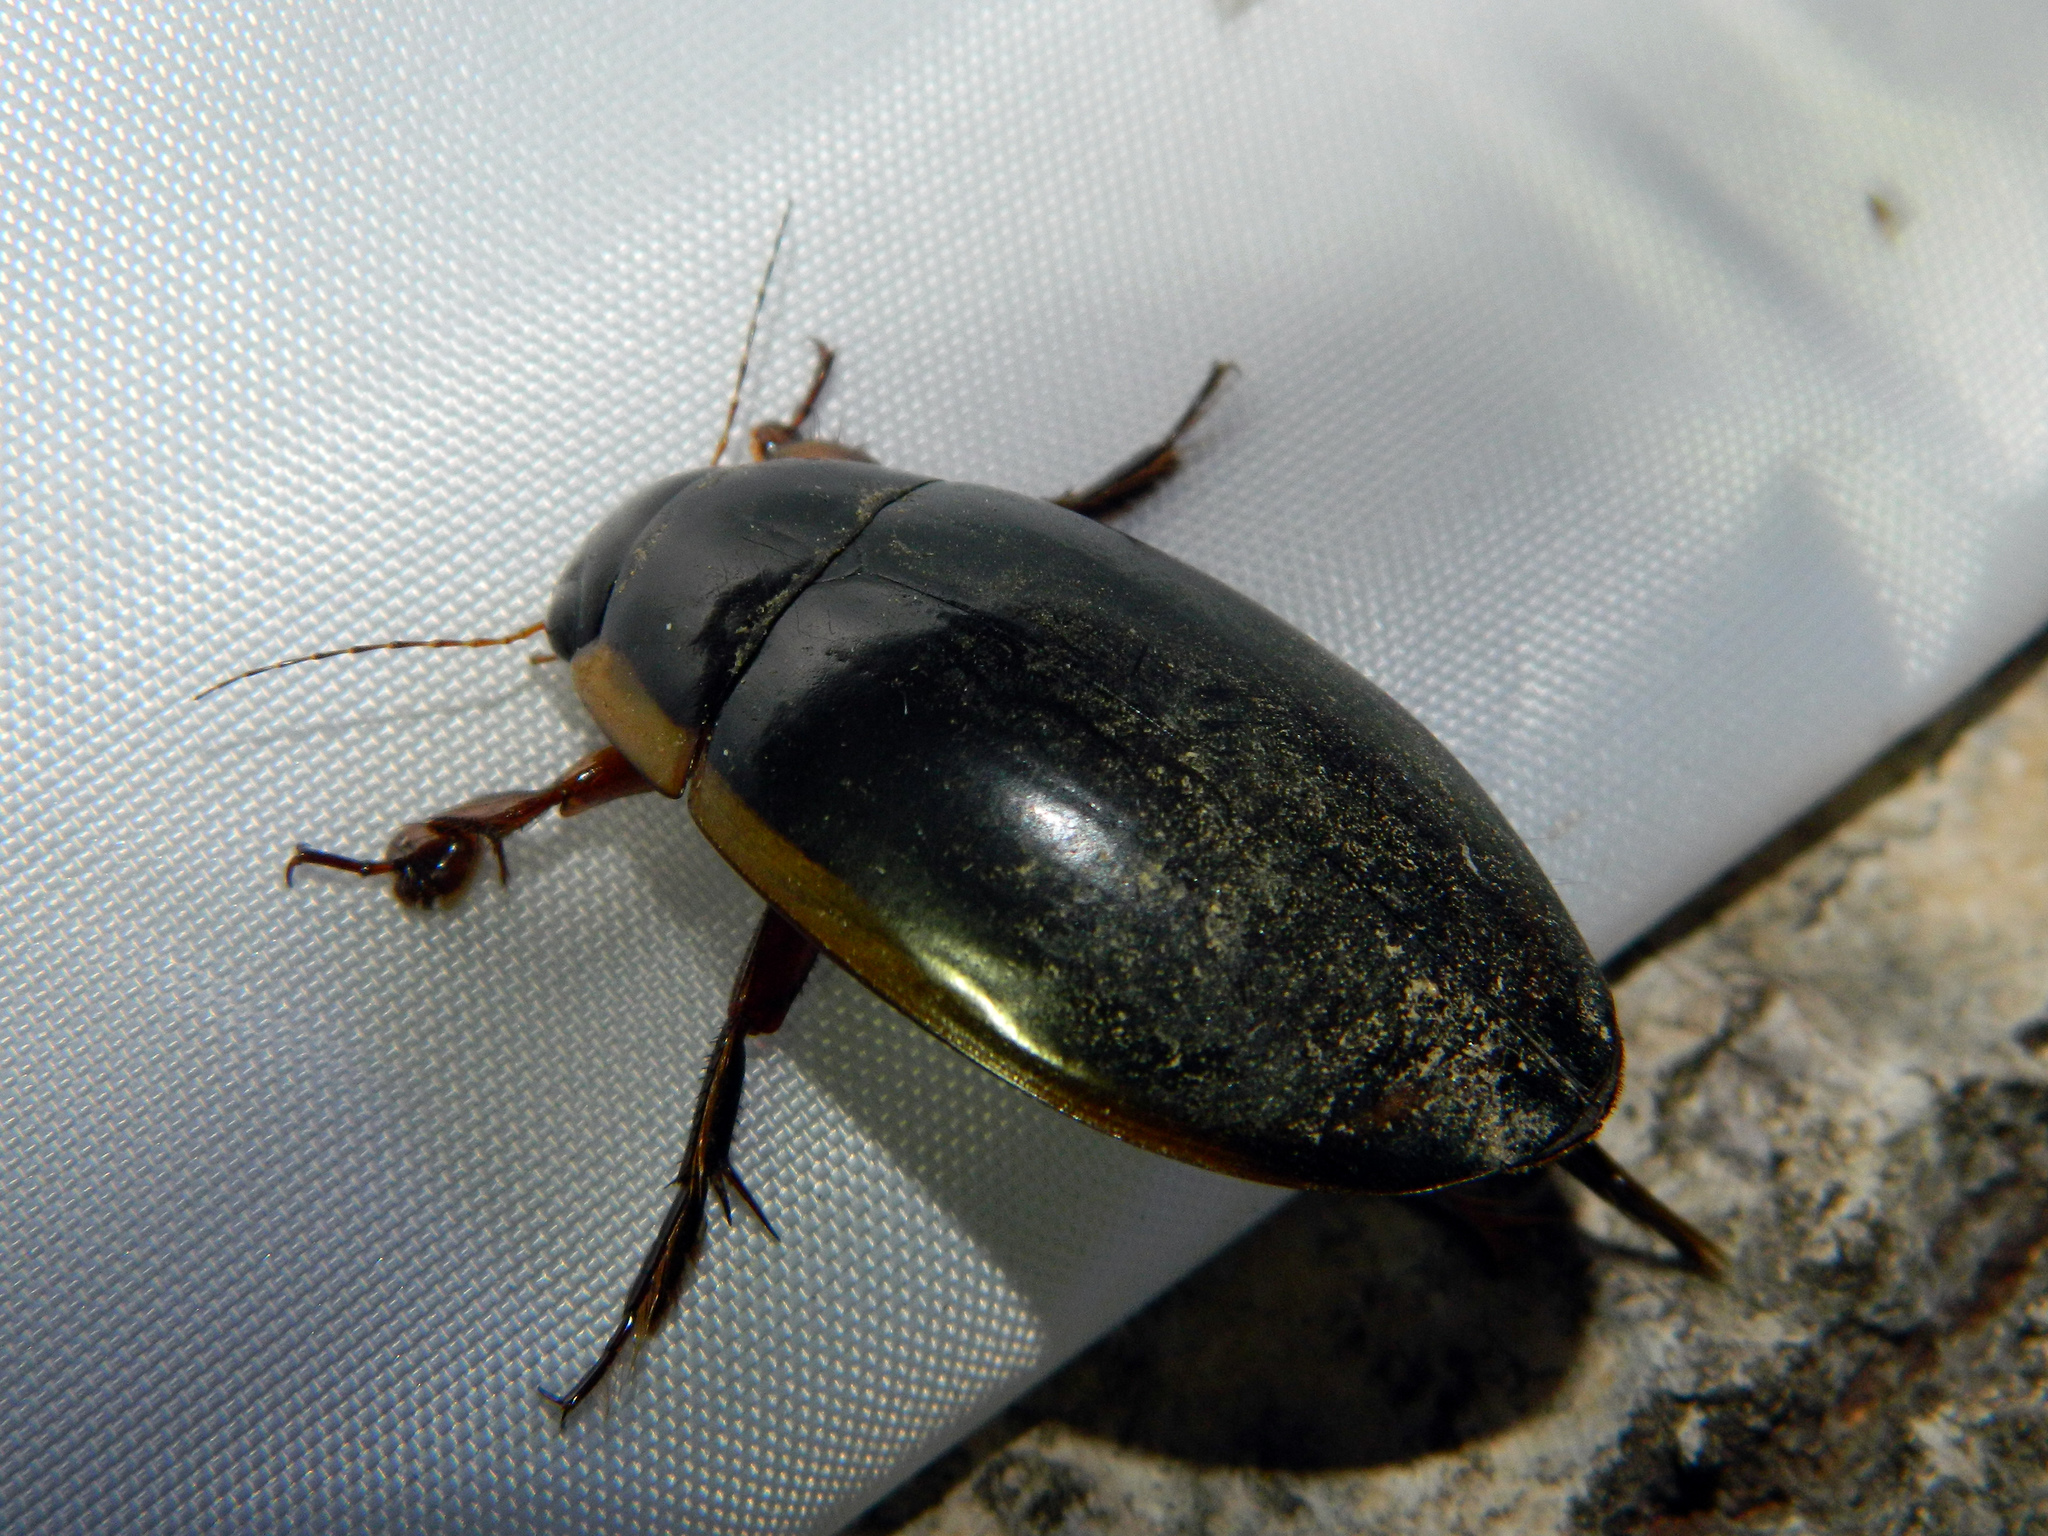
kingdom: Animalia
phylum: Arthropoda
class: Insecta
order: Coleoptera
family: Dytiscidae
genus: Dytiscus
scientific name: Dytiscus verticalis
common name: Vertical diving beetle
